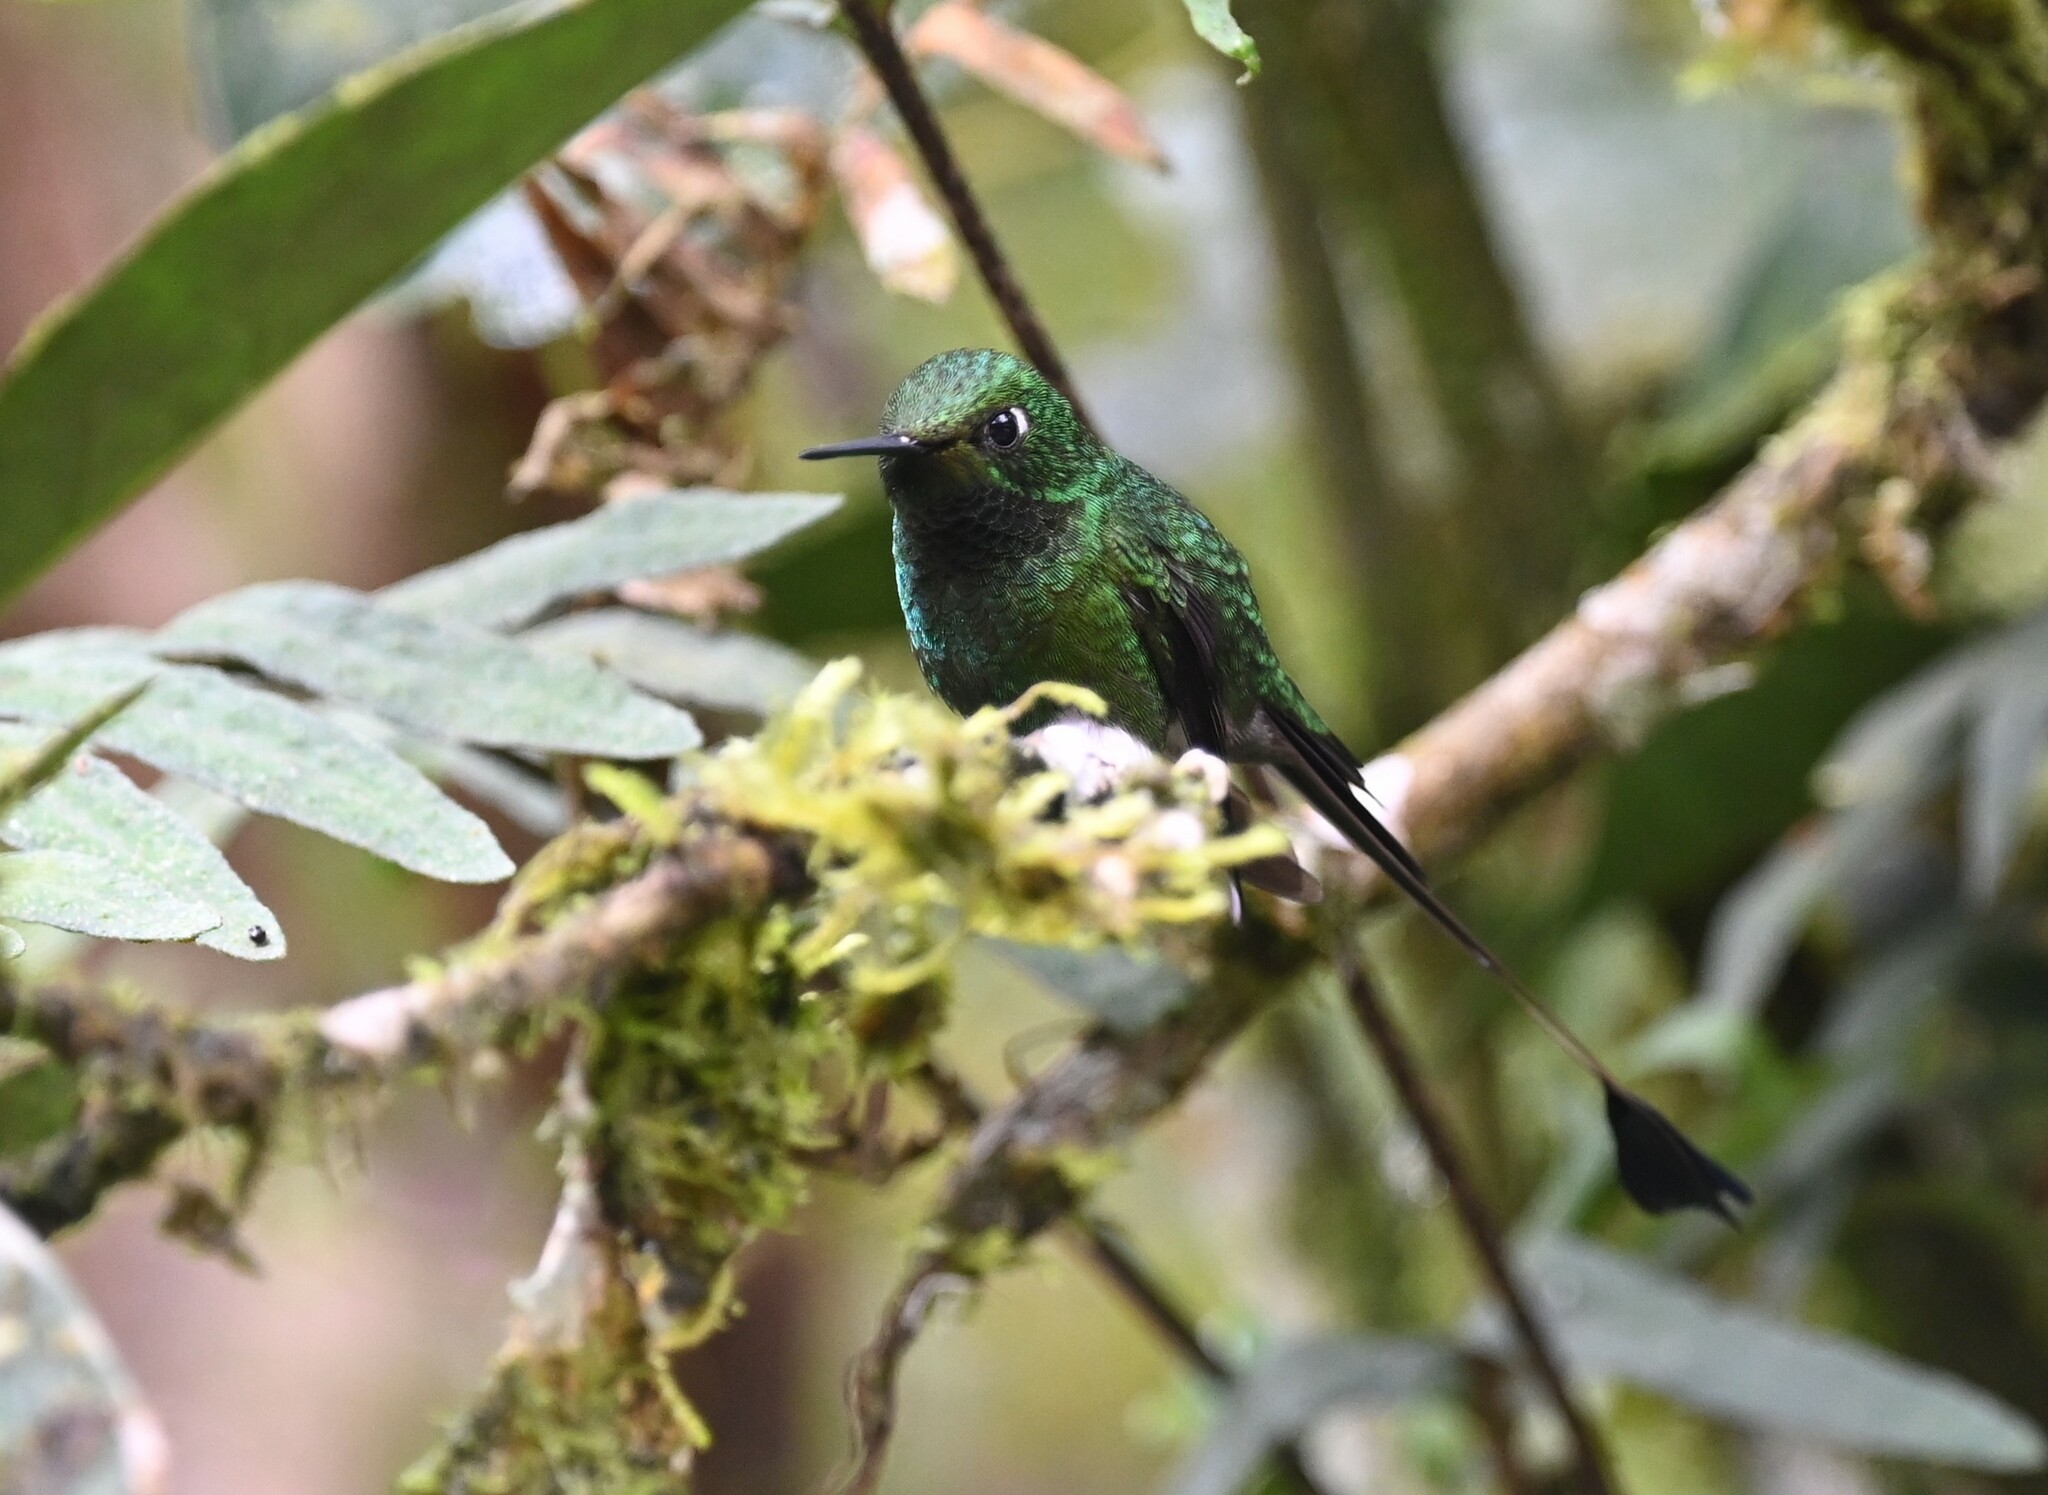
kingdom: Animalia
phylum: Chordata
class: Aves
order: Apodiformes
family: Trochilidae
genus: Ocreatus
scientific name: Ocreatus underwoodii
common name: Booted racket-tail
